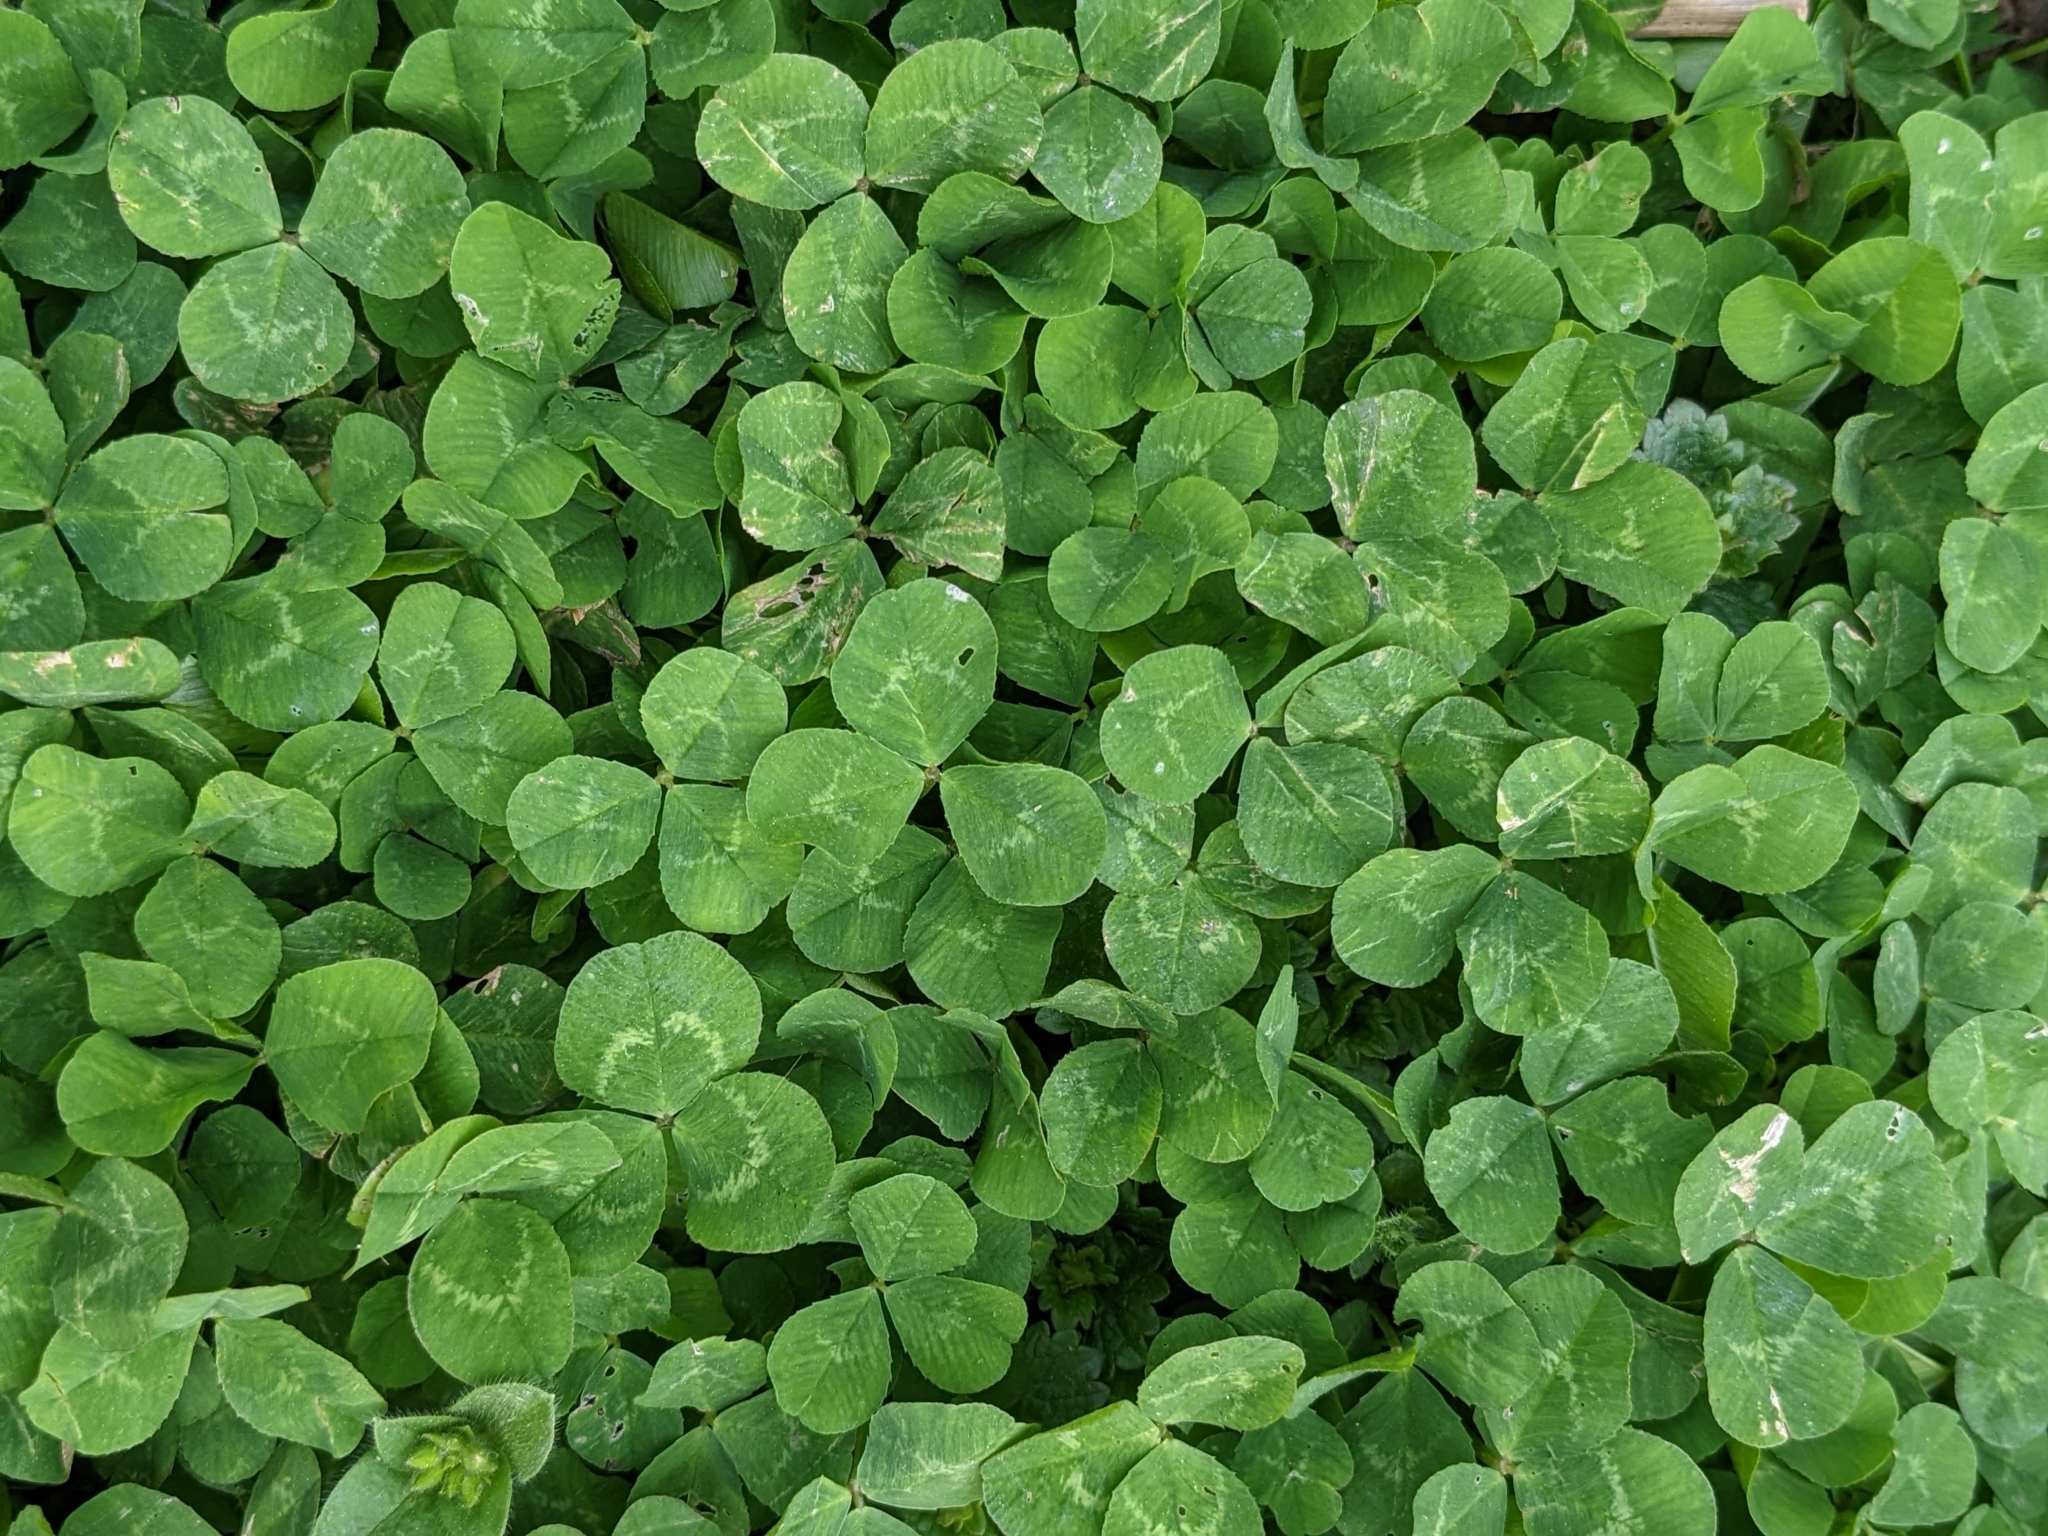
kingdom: Plantae
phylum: Tracheophyta
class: Magnoliopsida
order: Fabales
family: Fabaceae
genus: Trifolium
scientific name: Trifolium repens
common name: White clover
